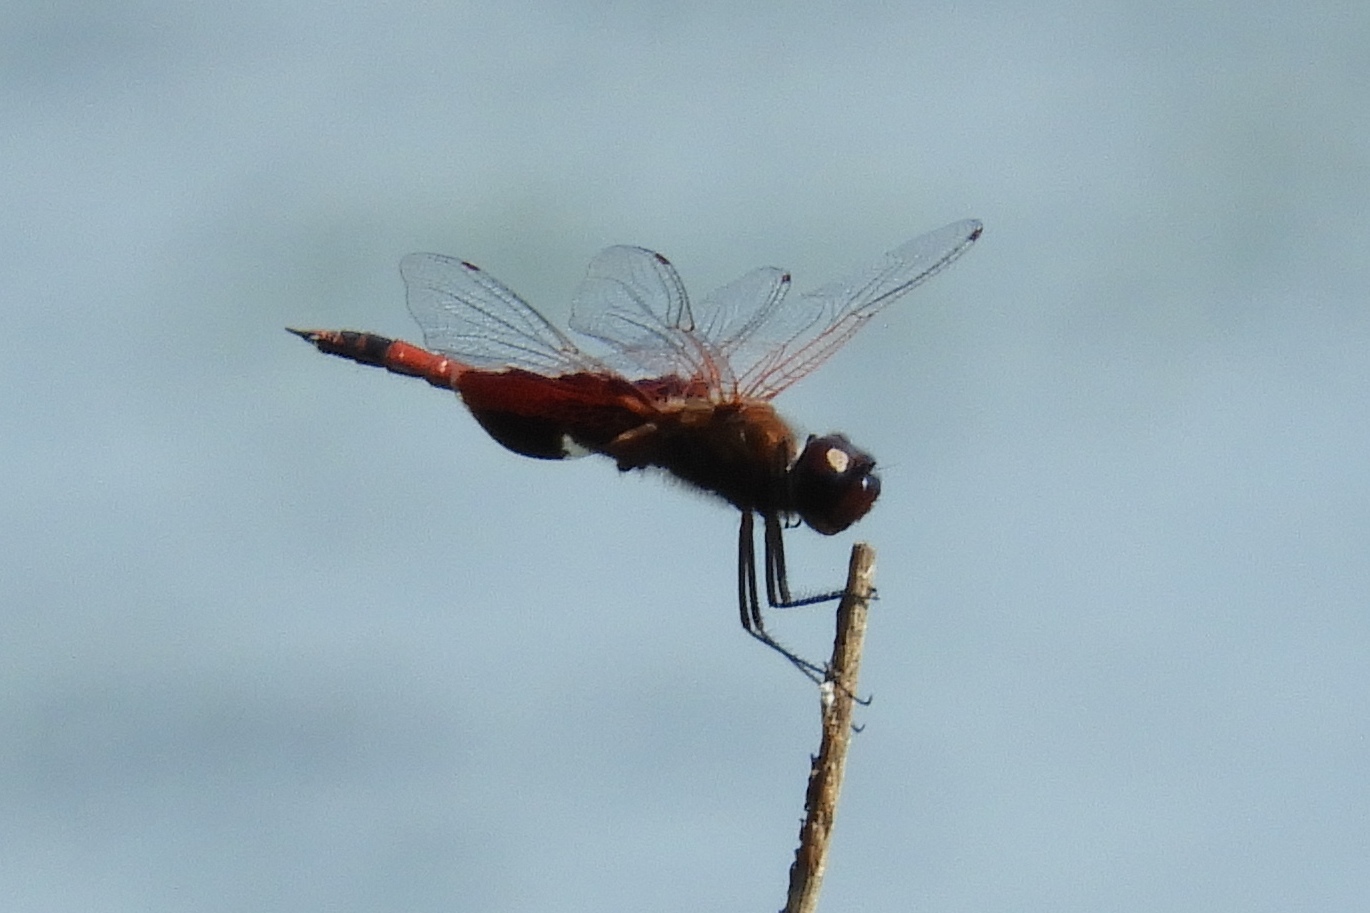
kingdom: Animalia
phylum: Arthropoda
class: Insecta
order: Odonata
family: Libellulidae
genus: Tramea
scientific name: Tramea carolina
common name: Carolina saddlebags
